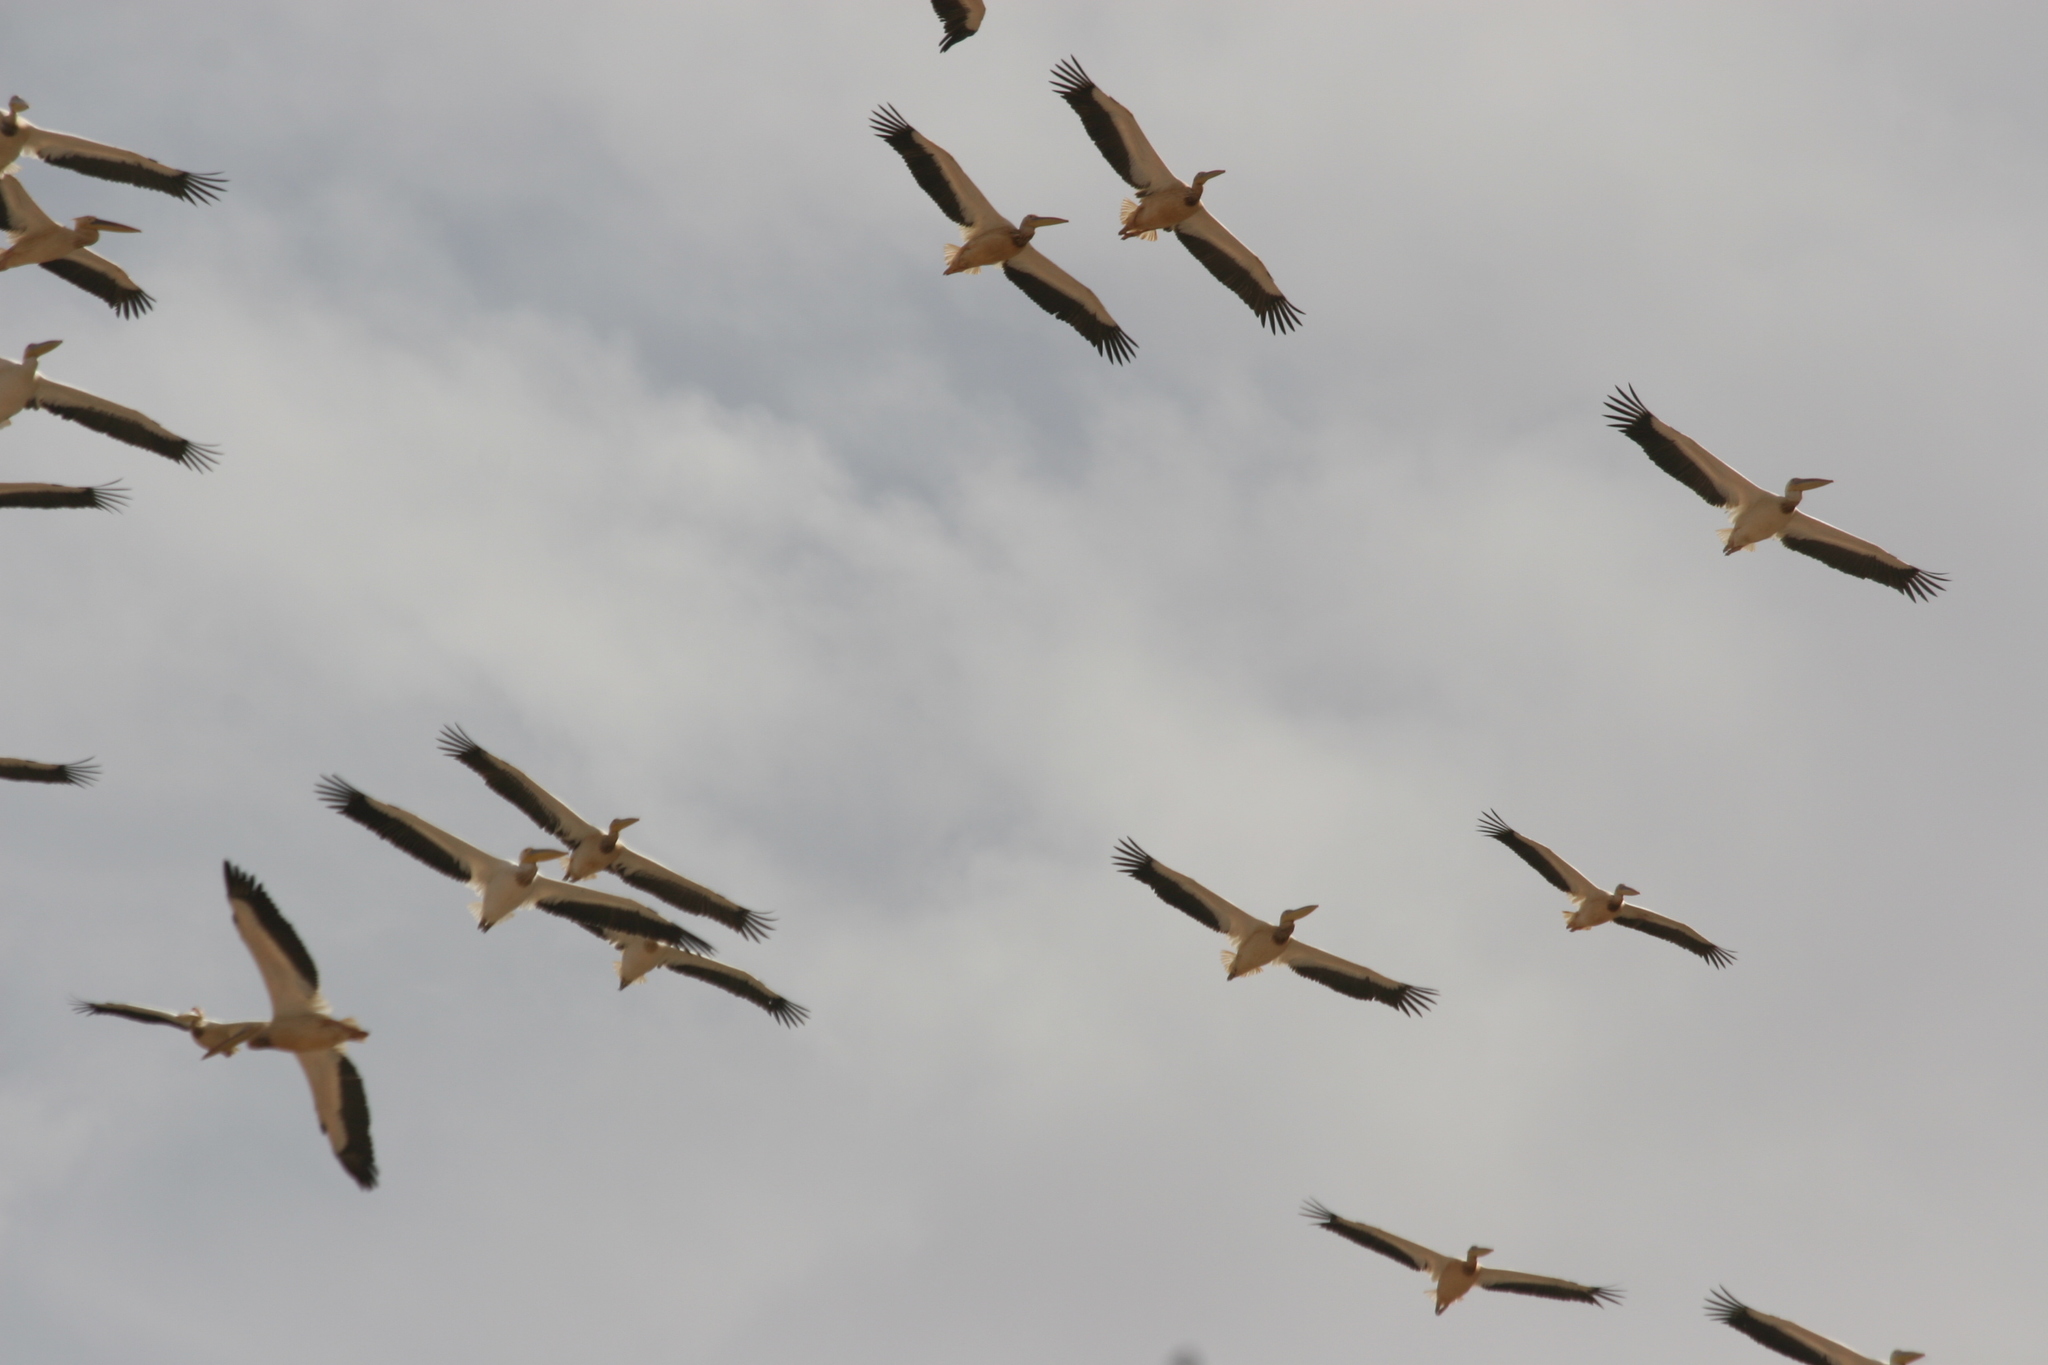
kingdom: Animalia
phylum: Chordata
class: Aves
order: Pelecaniformes
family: Pelecanidae
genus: Pelecanus
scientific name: Pelecanus onocrotalus
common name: Great white pelican
